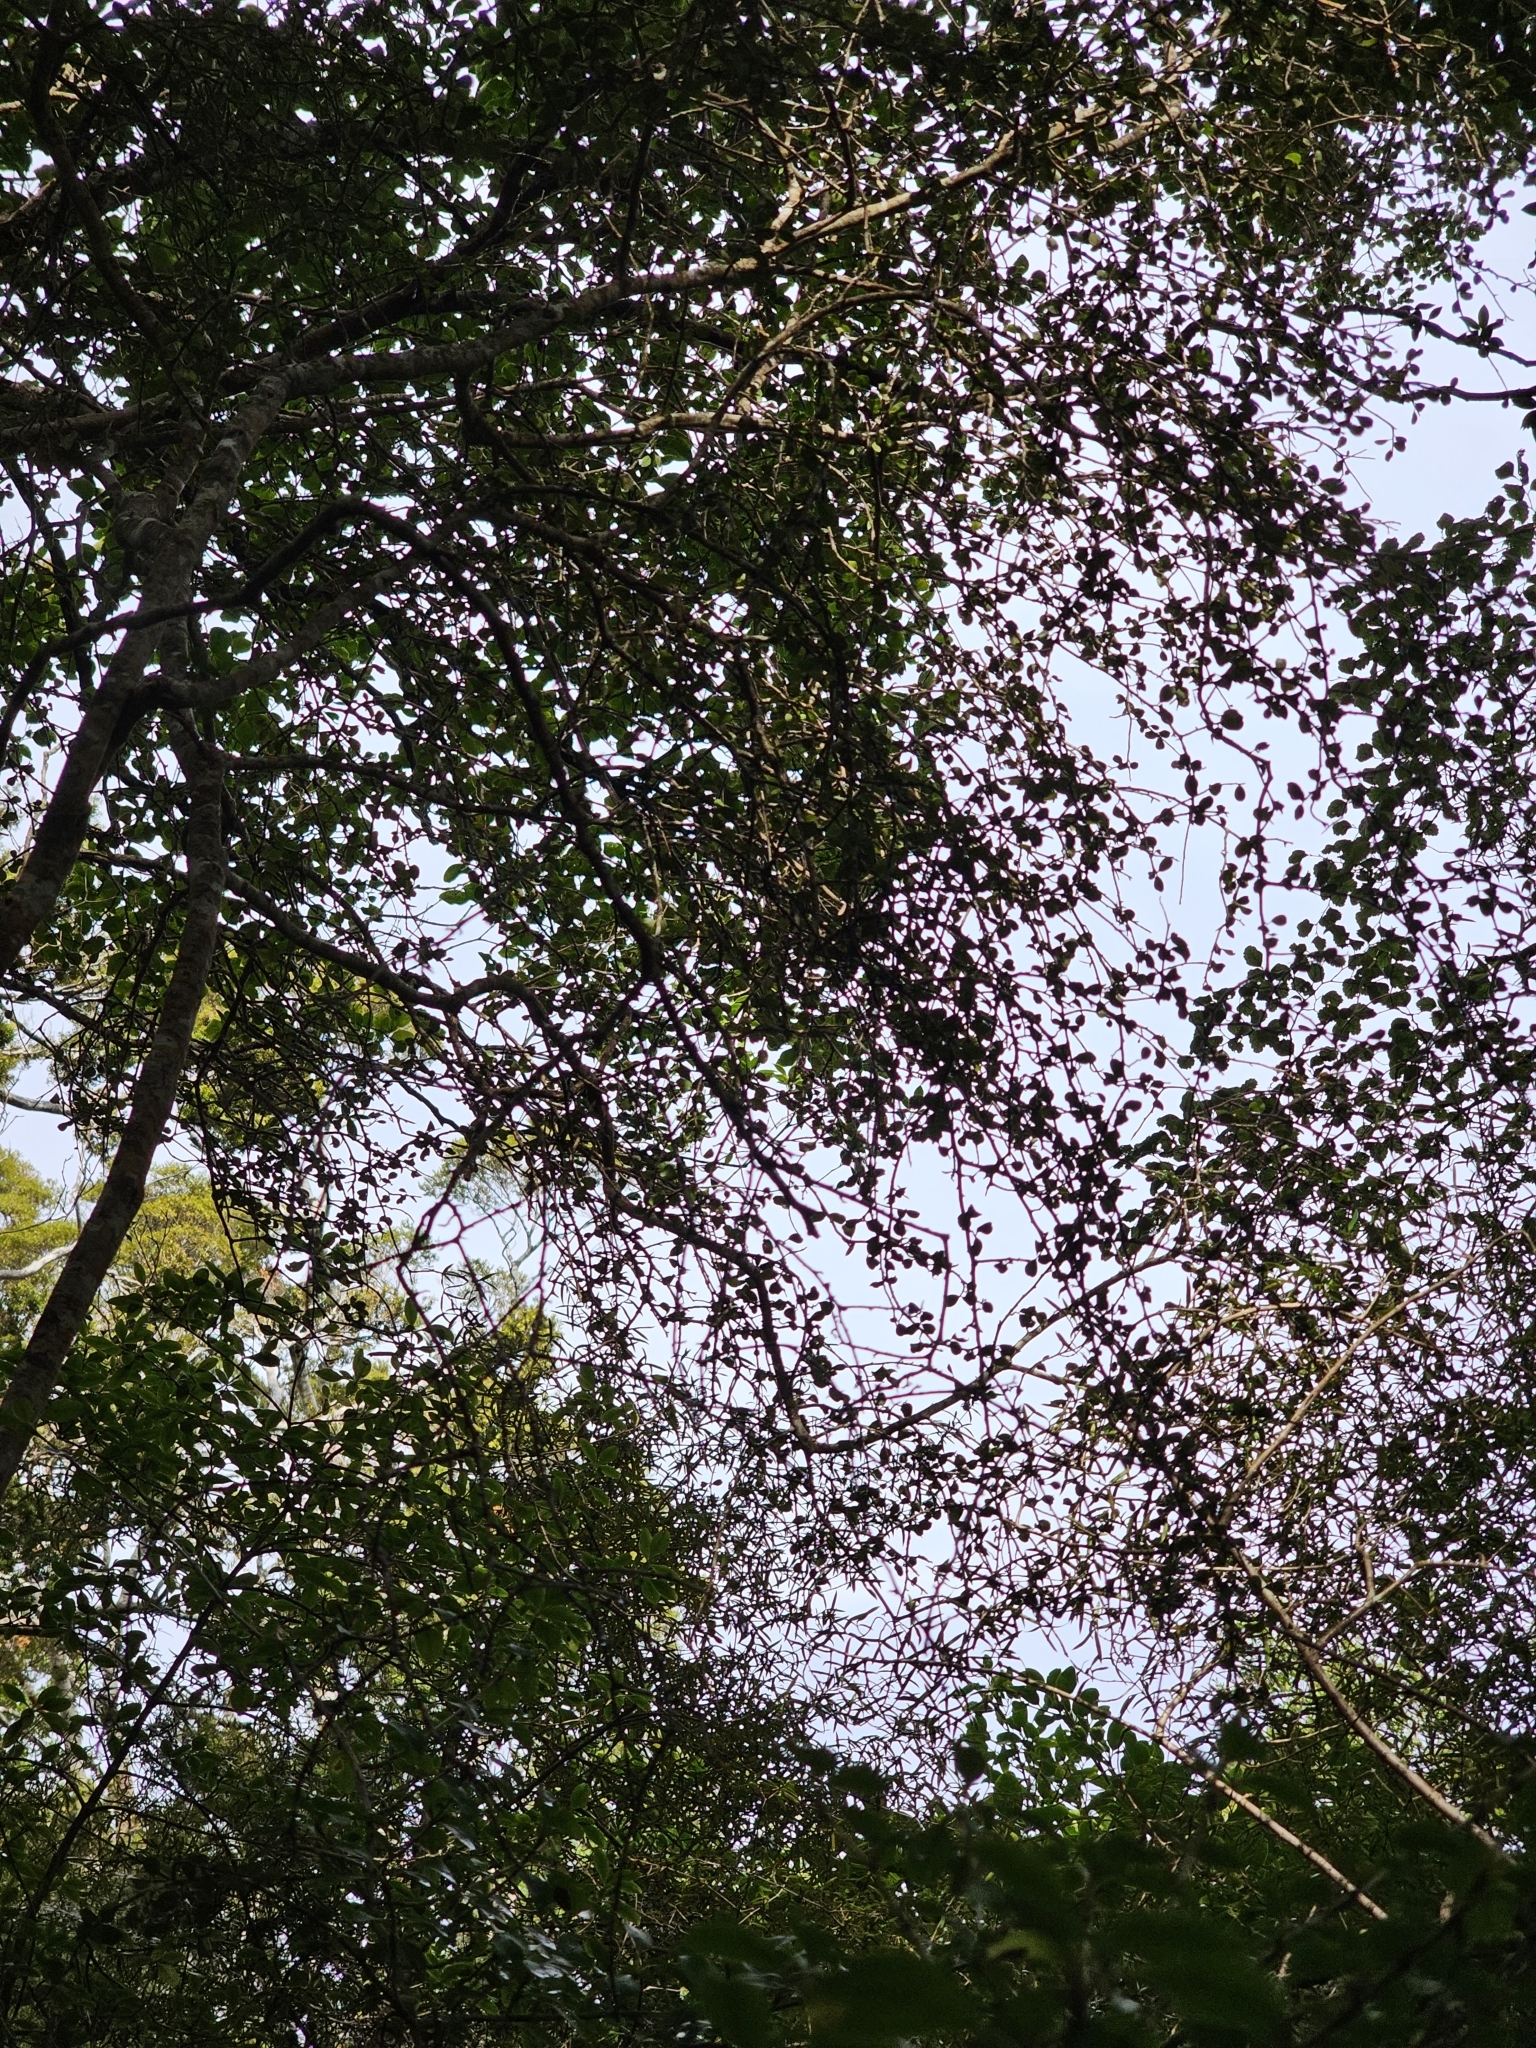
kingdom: Plantae
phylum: Tracheophyta
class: Magnoliopsida
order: Ericales
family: Primulaceae
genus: Myrsine
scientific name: Myrsine divaricata
